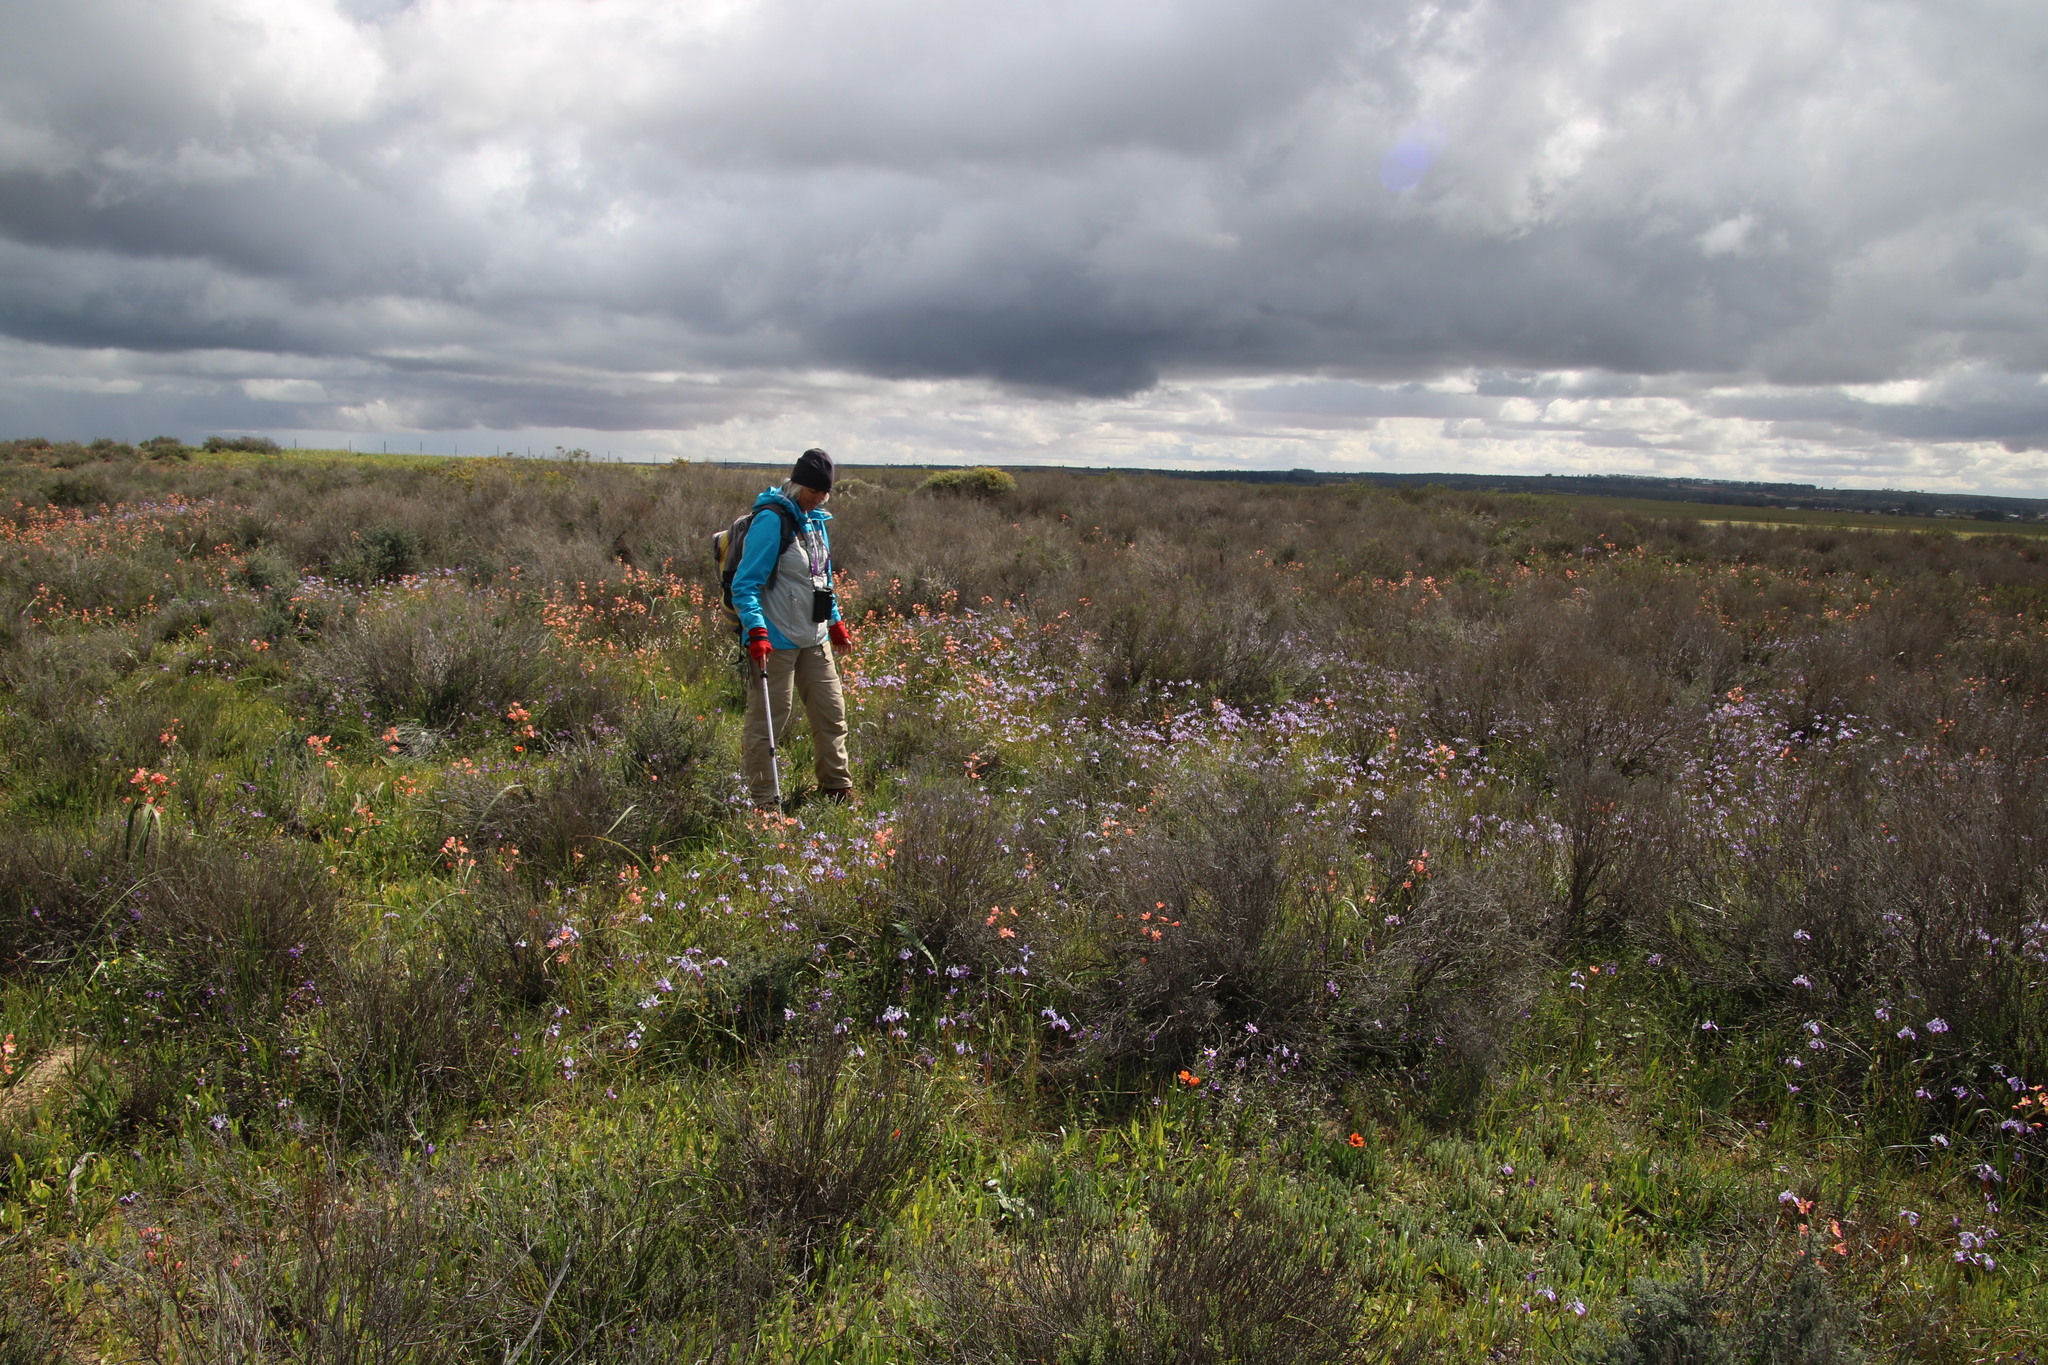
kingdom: Plantae
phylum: Tracheophyta
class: Liliopsida
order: Asparagales
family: Iridaceae
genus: Moraea
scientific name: Moraea tripetala
